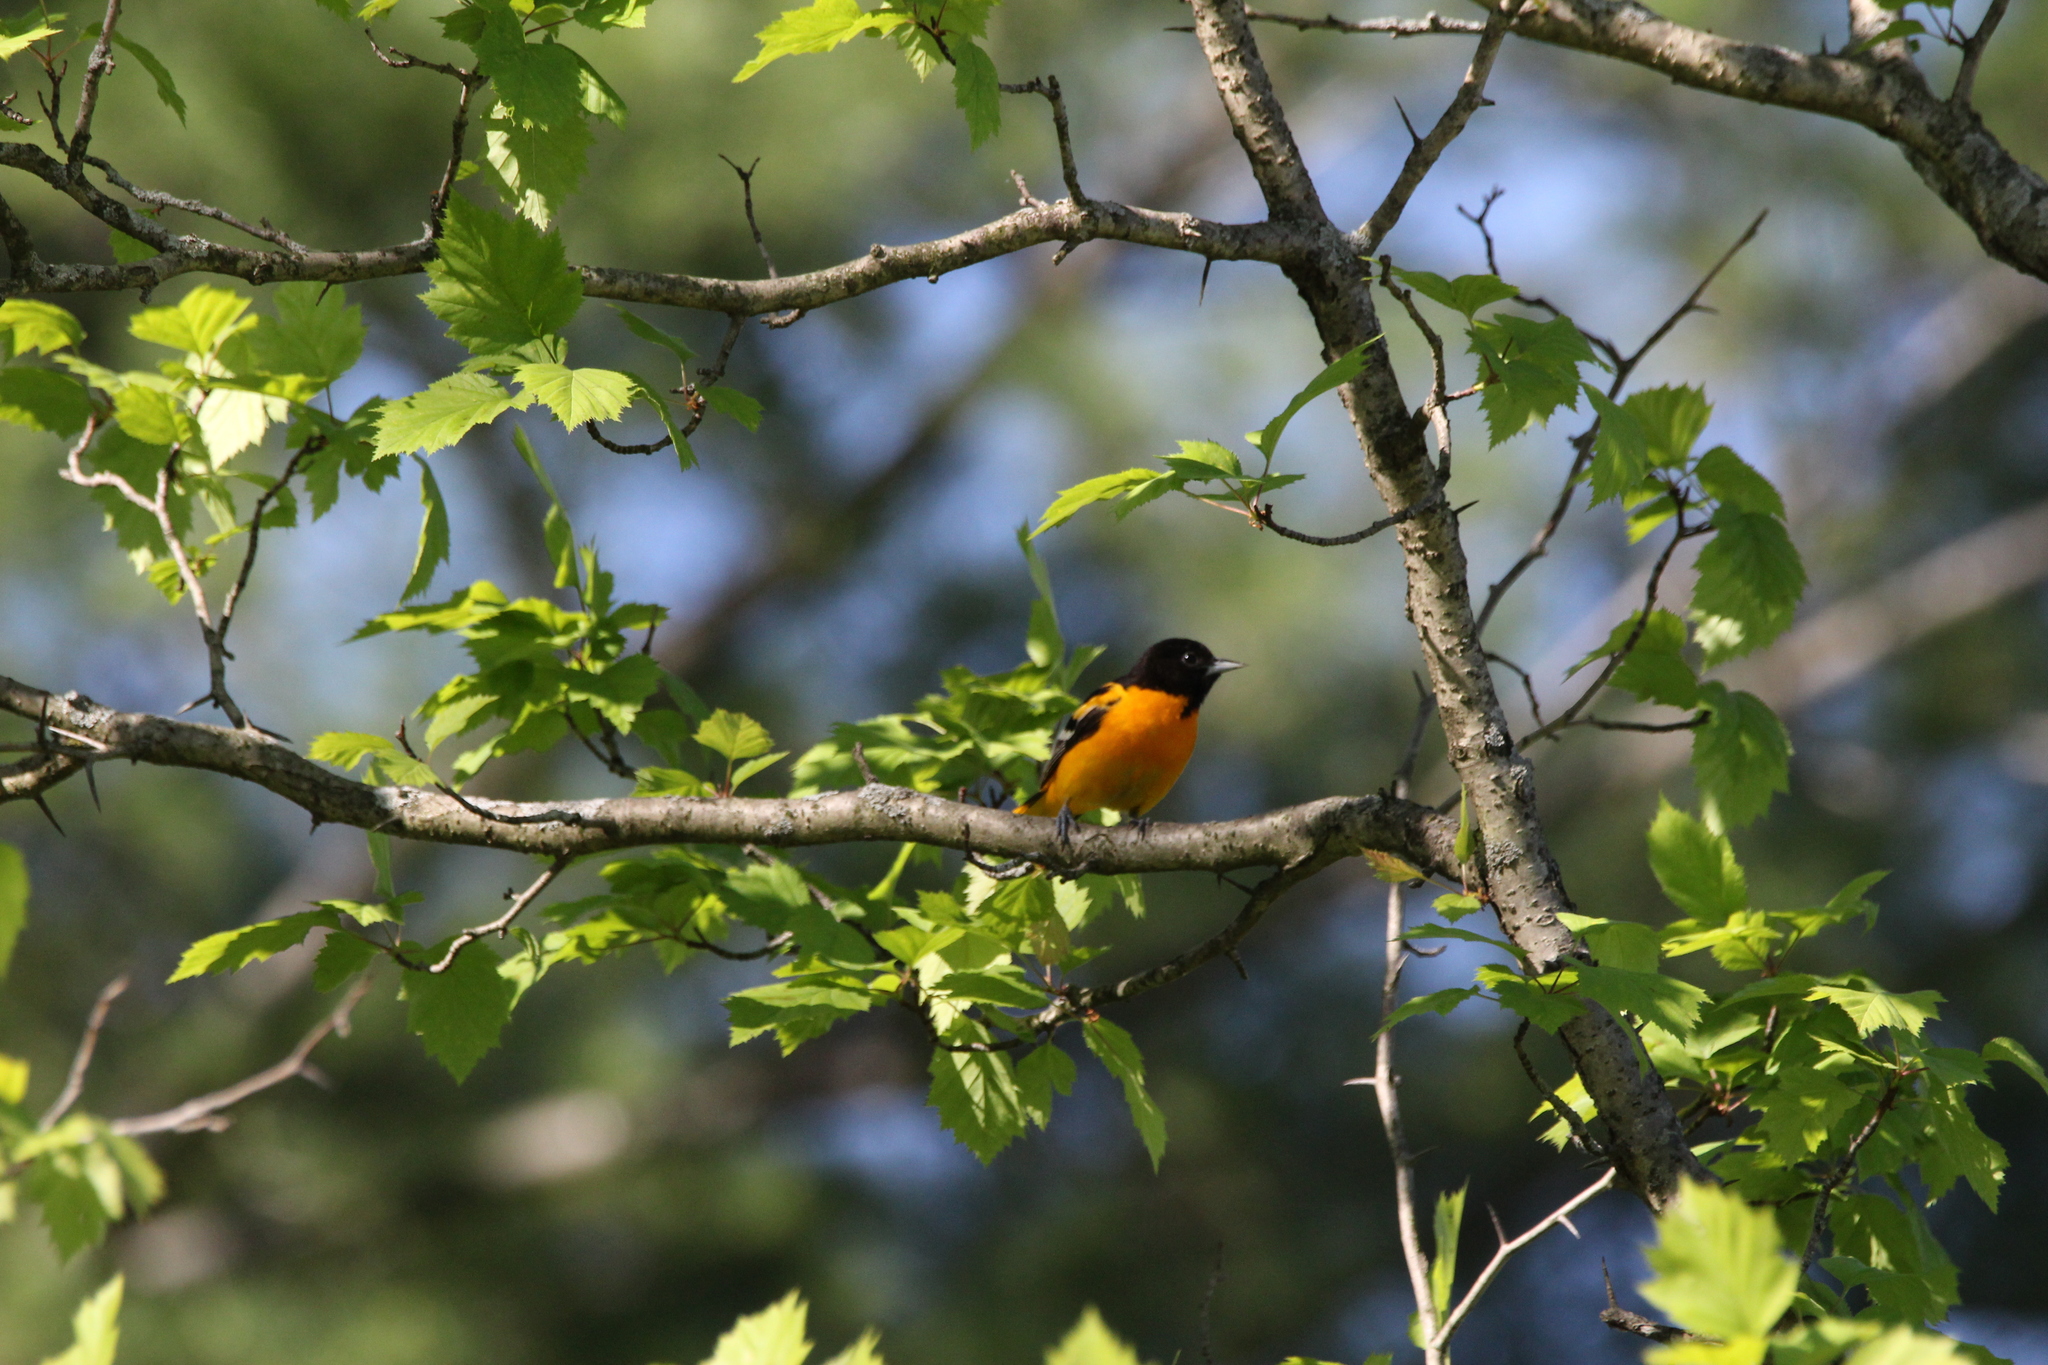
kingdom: Animalia
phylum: Chordata
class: Aves
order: Passeriformes
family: Icteridae
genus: Icterus
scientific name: Icterus galbula
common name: Baltimore oriole
